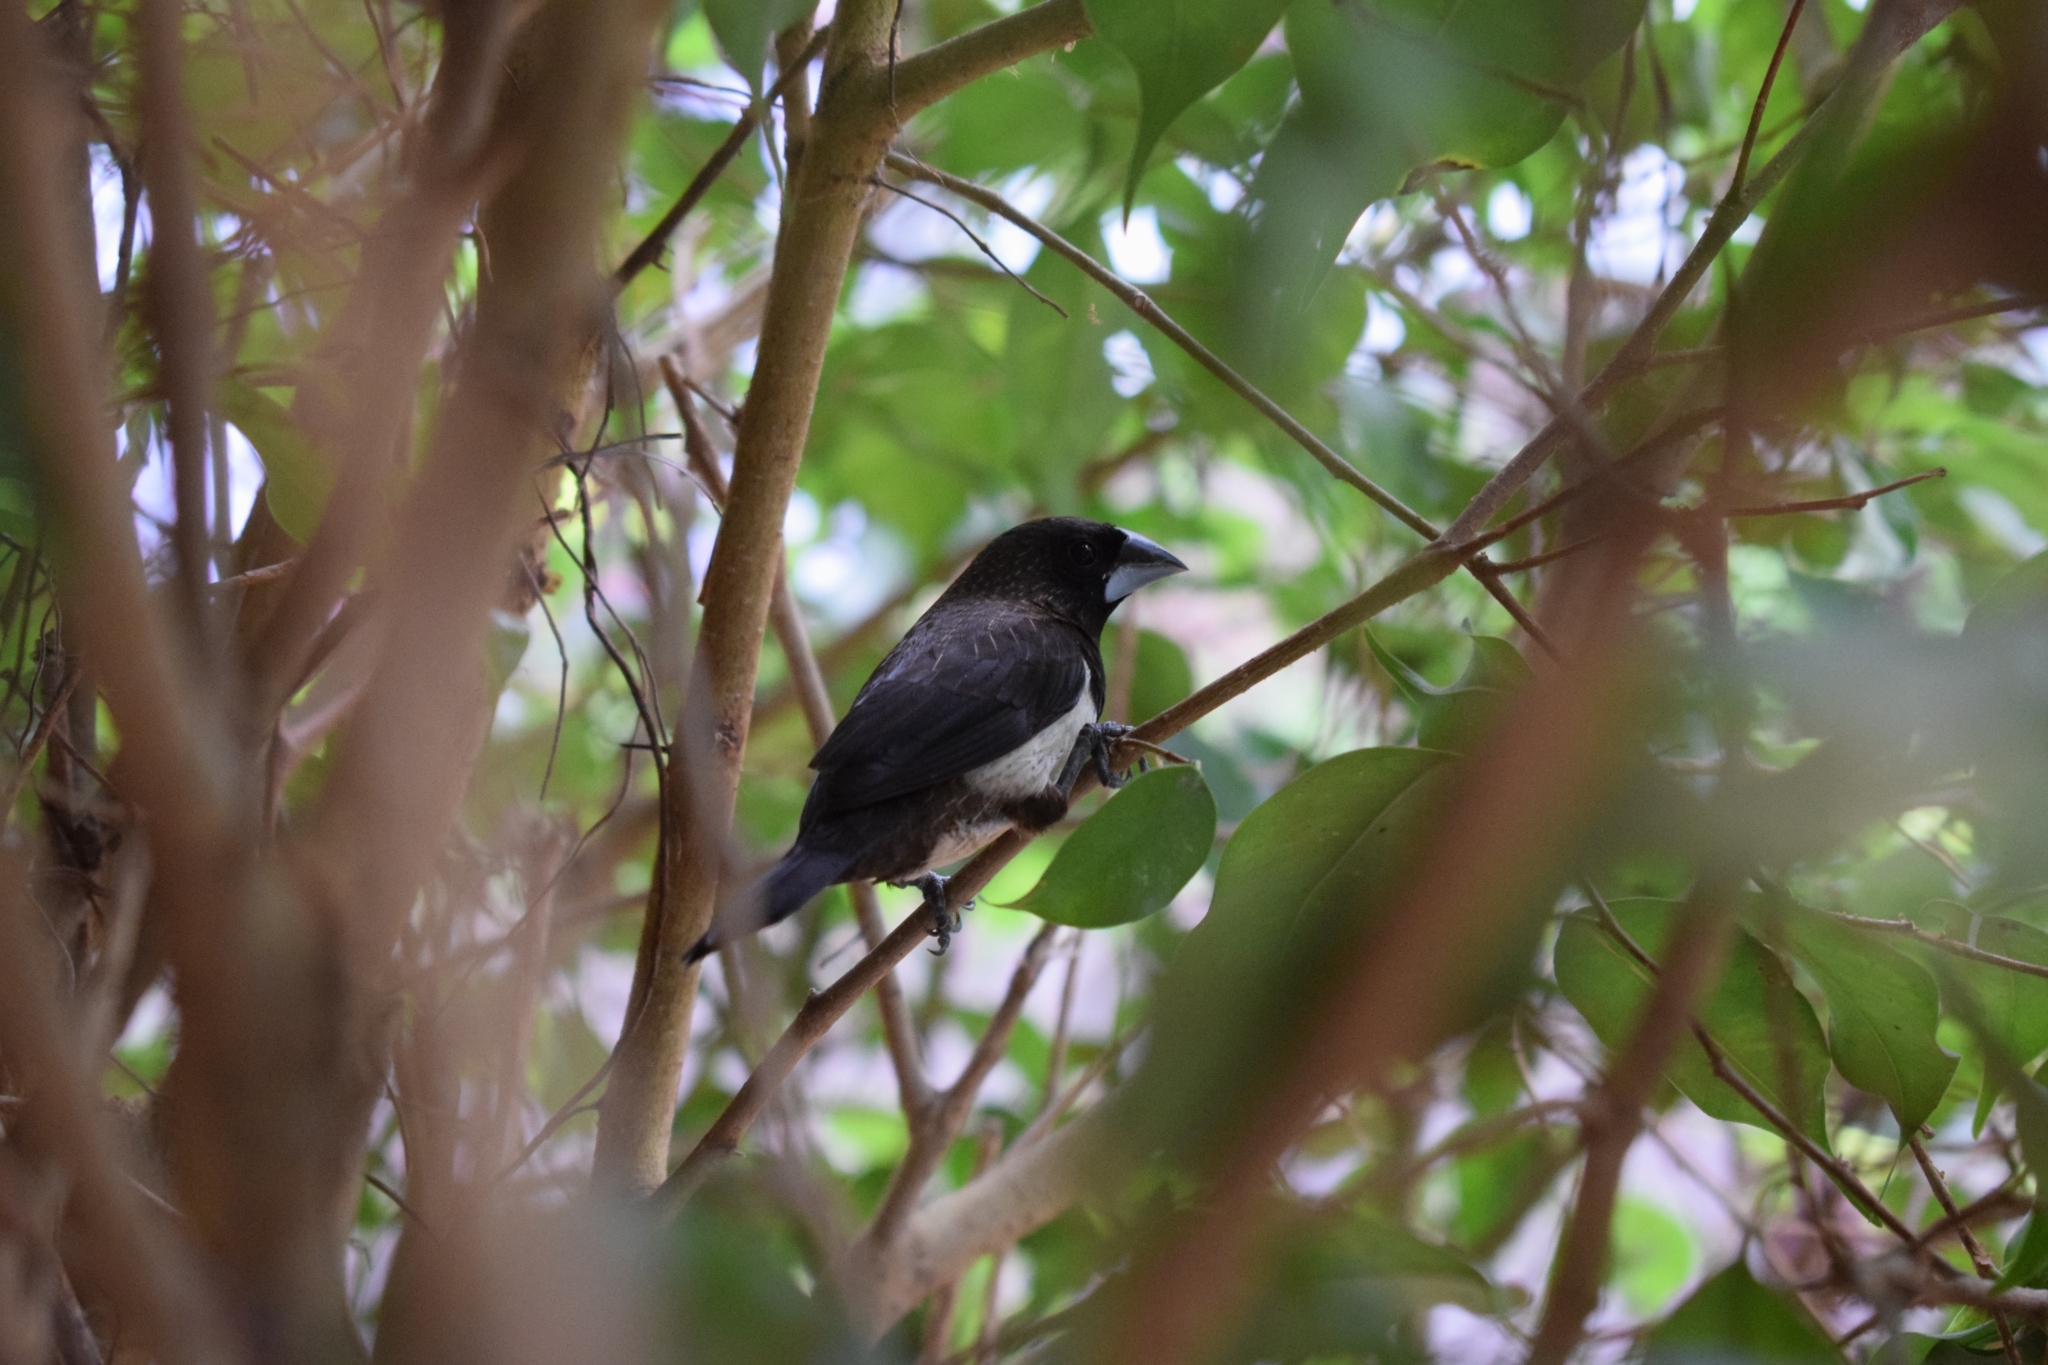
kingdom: Animalia
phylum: Chordata
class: Aves
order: Passeriformes
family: Estrildidae
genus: Lonchura
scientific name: Lonchura striata
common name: White-rumped munia
